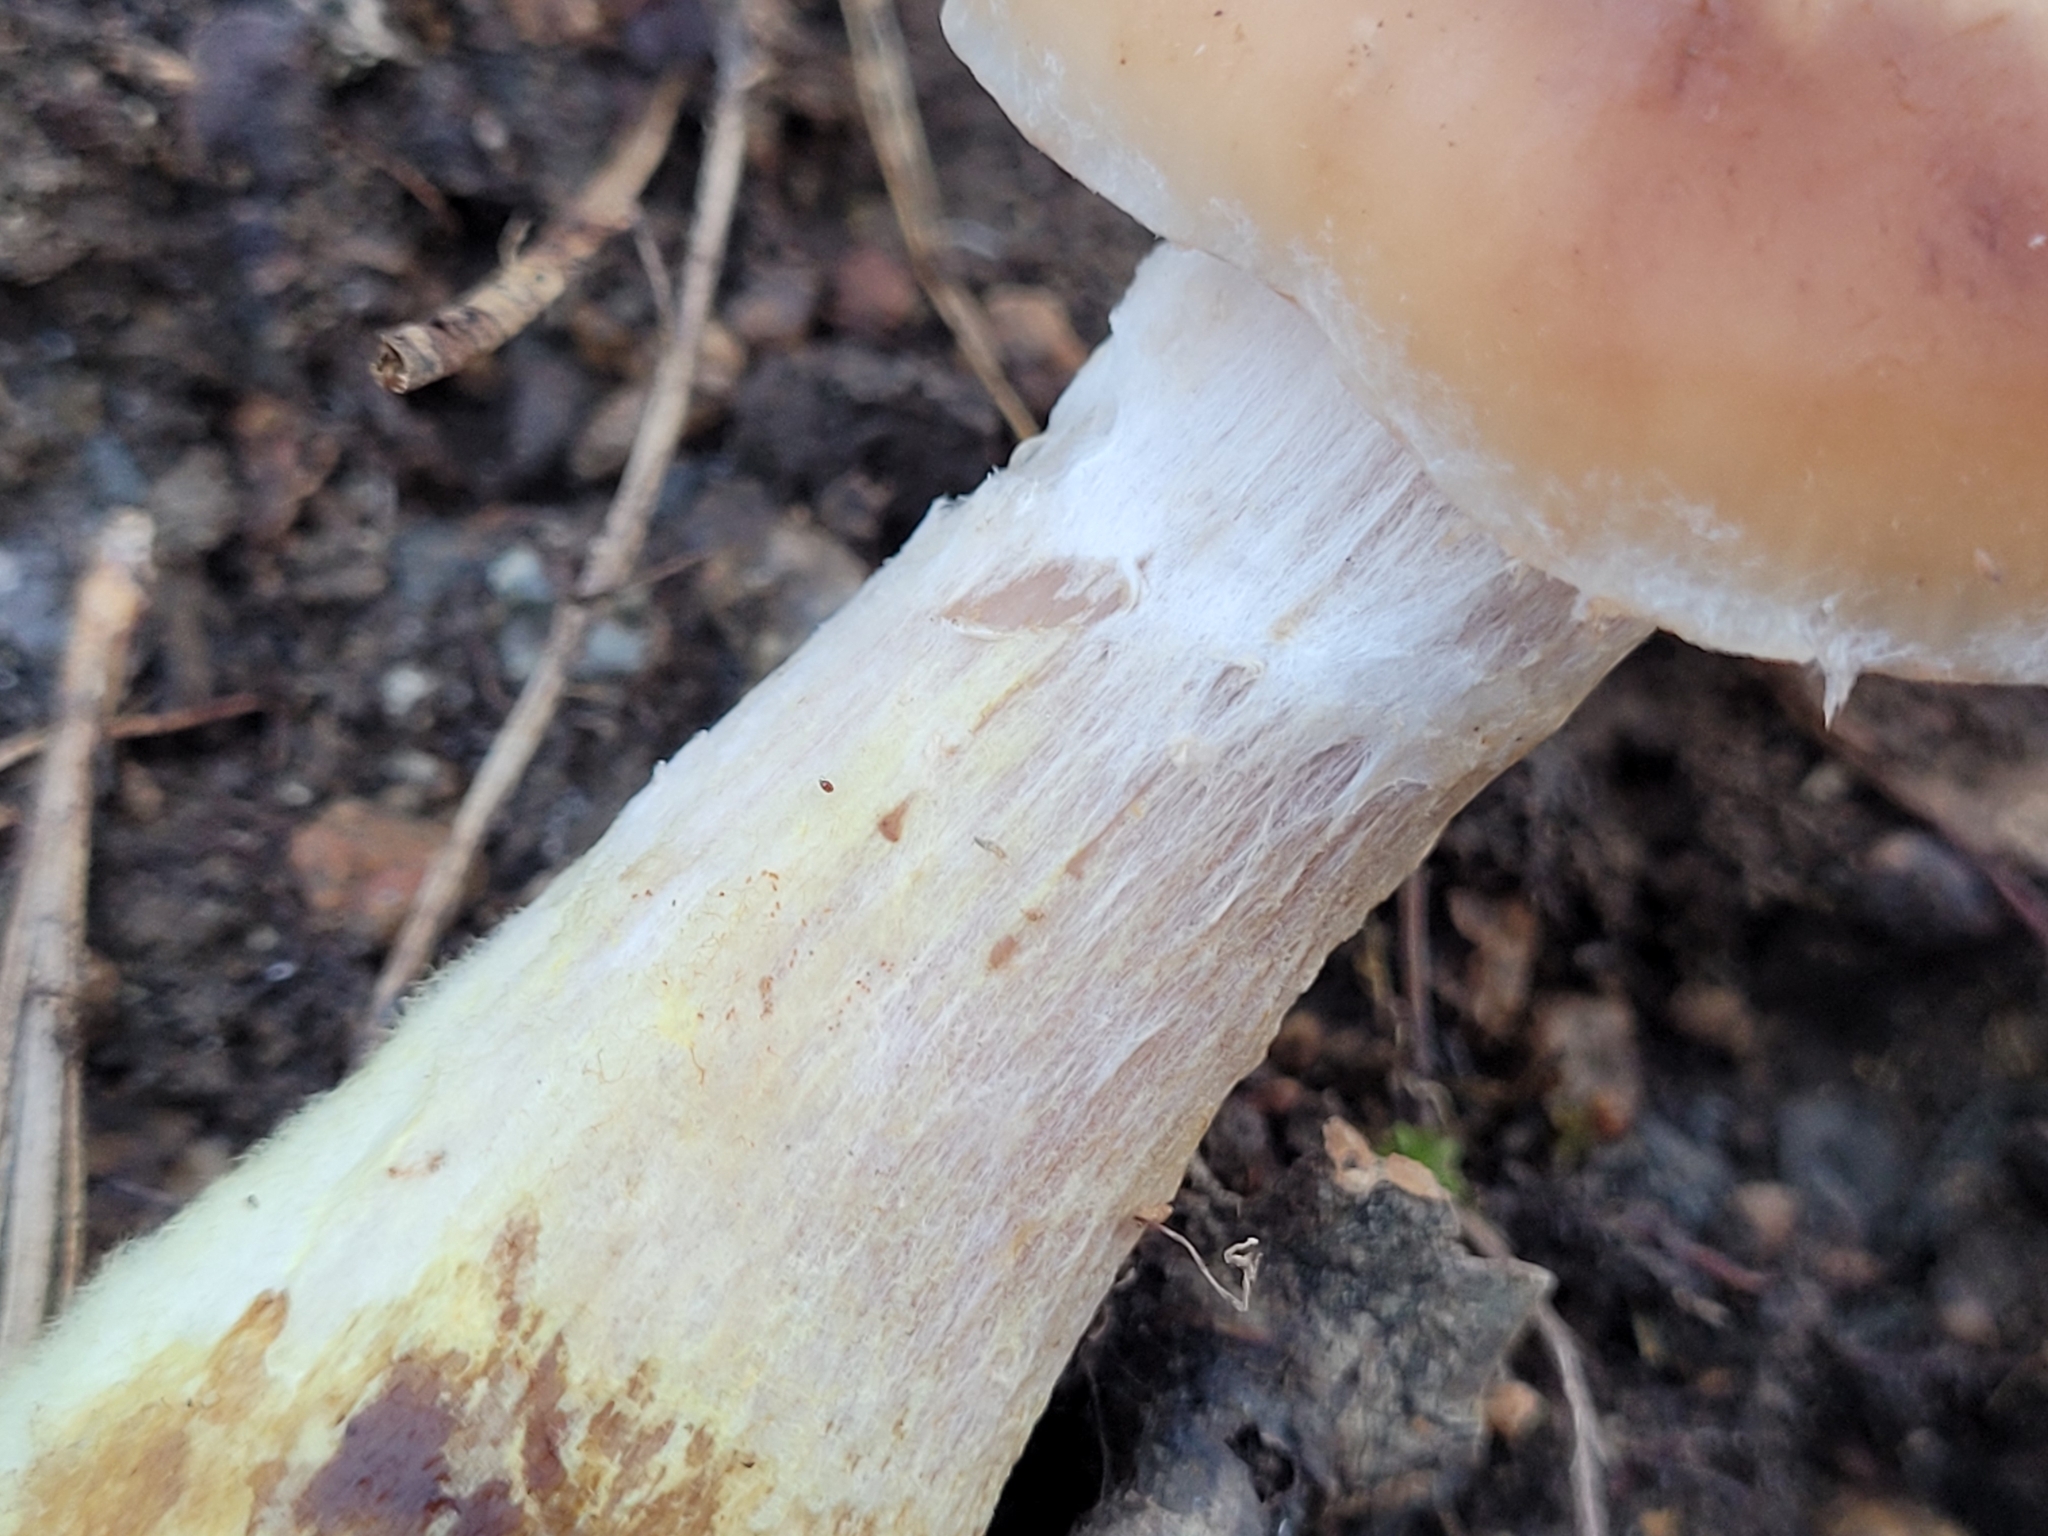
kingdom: Fungi
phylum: Basidiomycota
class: Agaricomycetes
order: Agaricales
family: Physalacriaceae
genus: Armillaria
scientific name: Armillaria gallica
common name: Bulbous honey fungus
